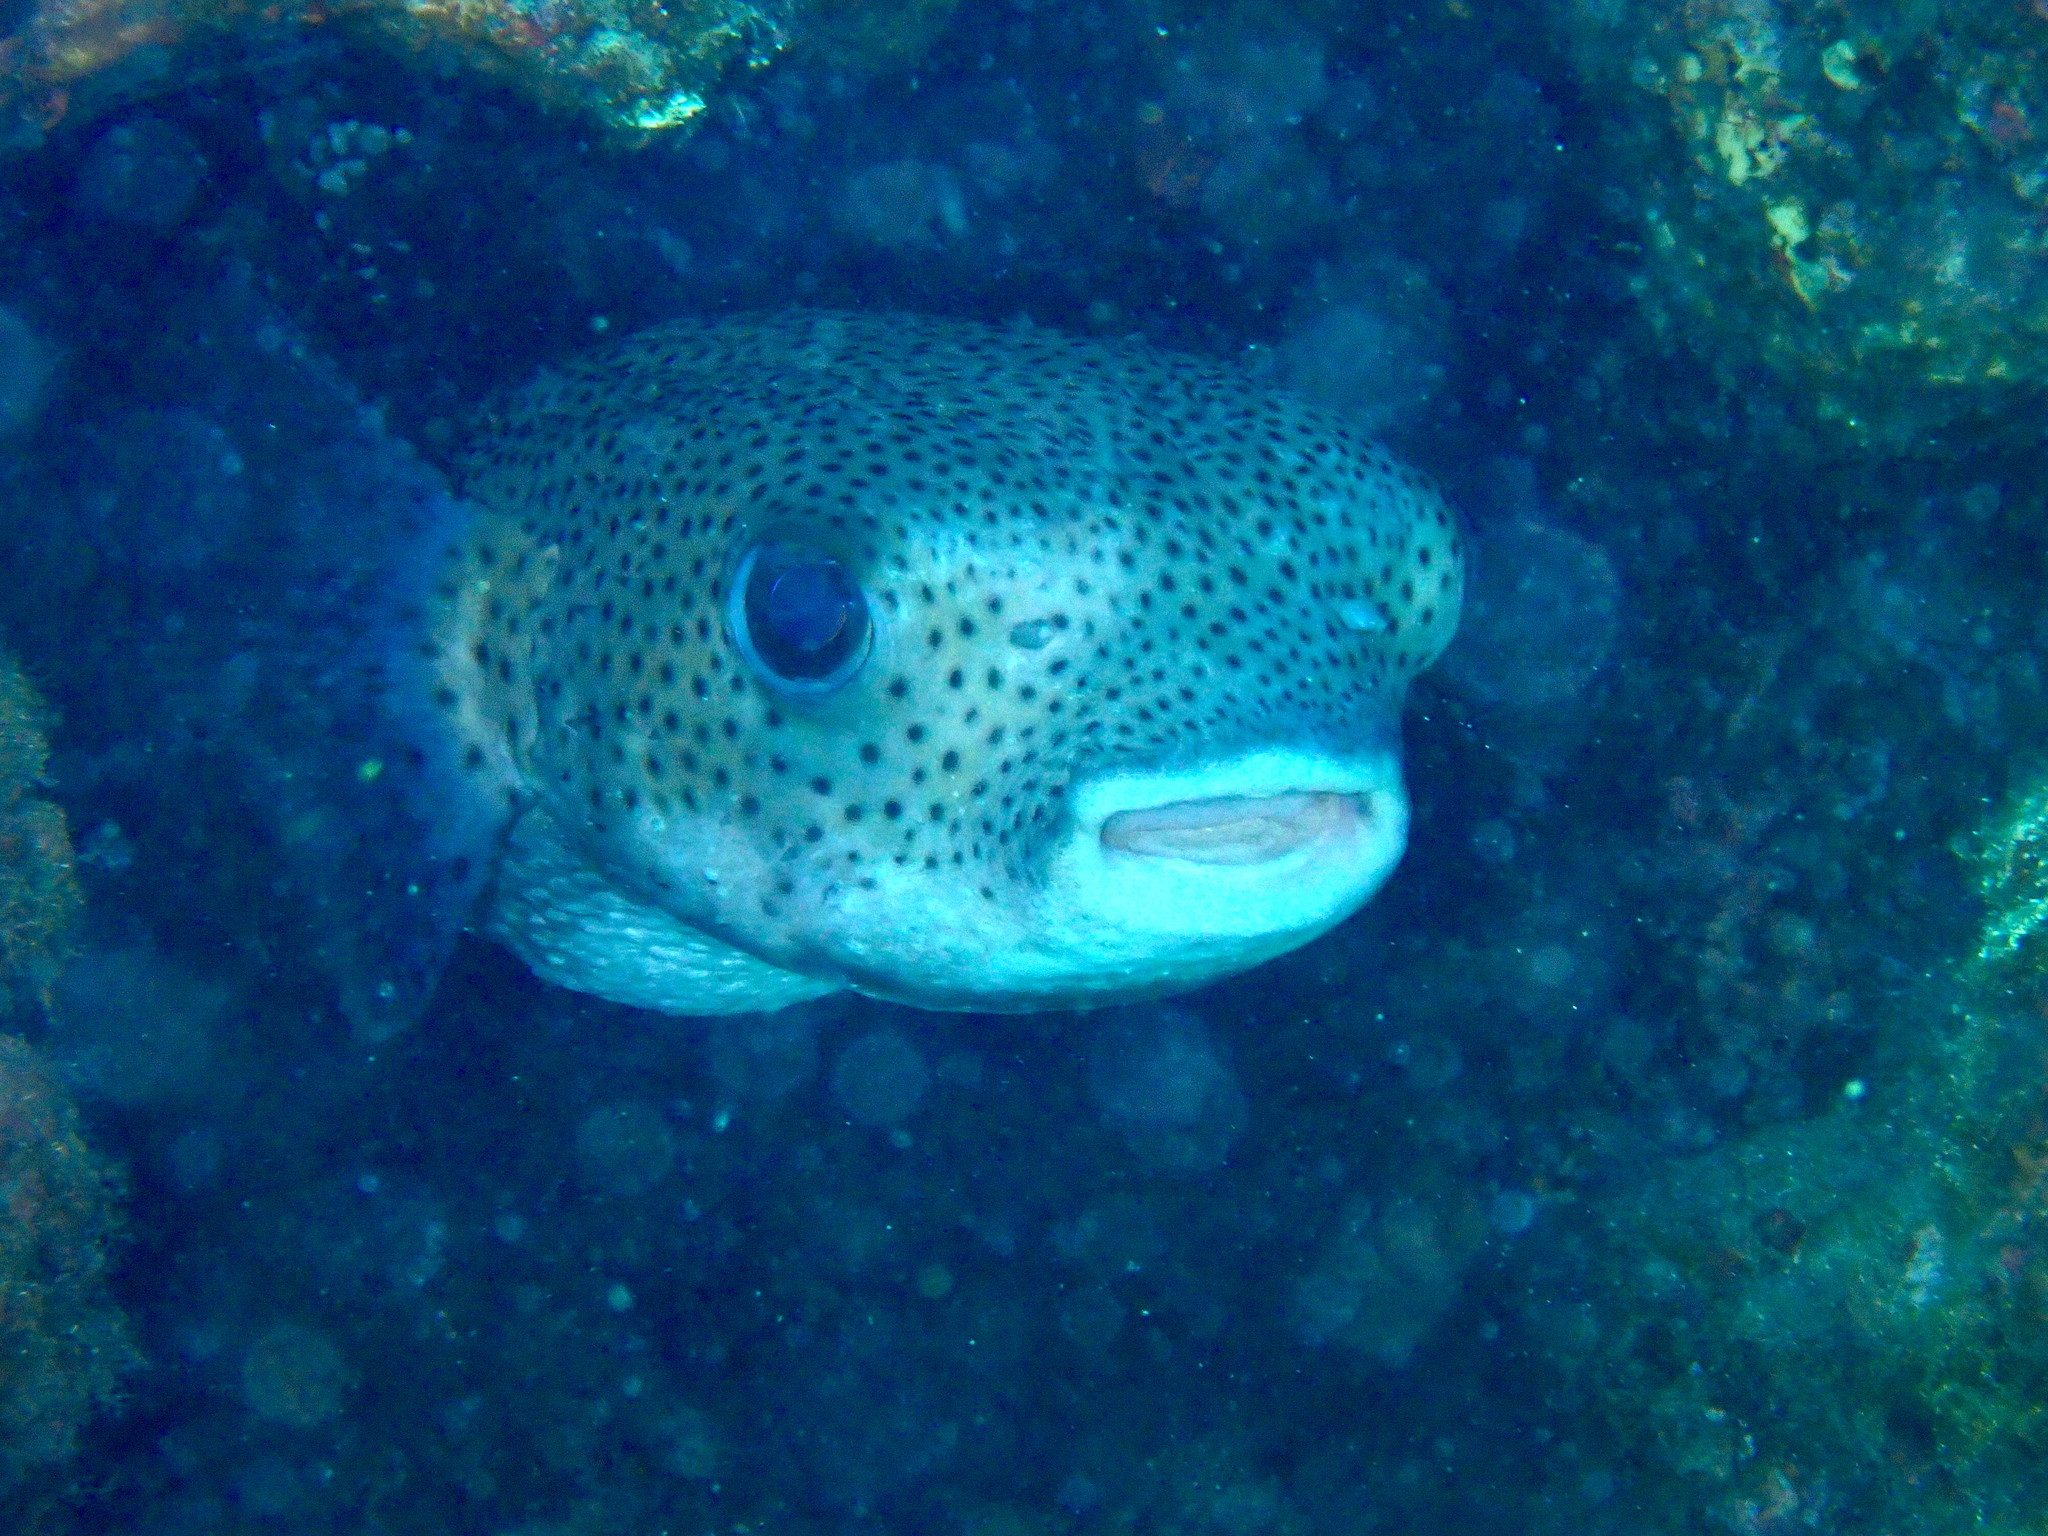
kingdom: Animalia
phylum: Chordata
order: Tetraodontiformes
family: Diodontidae
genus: Diodon
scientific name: Diodon hystrix
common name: Giant porcupinefish
